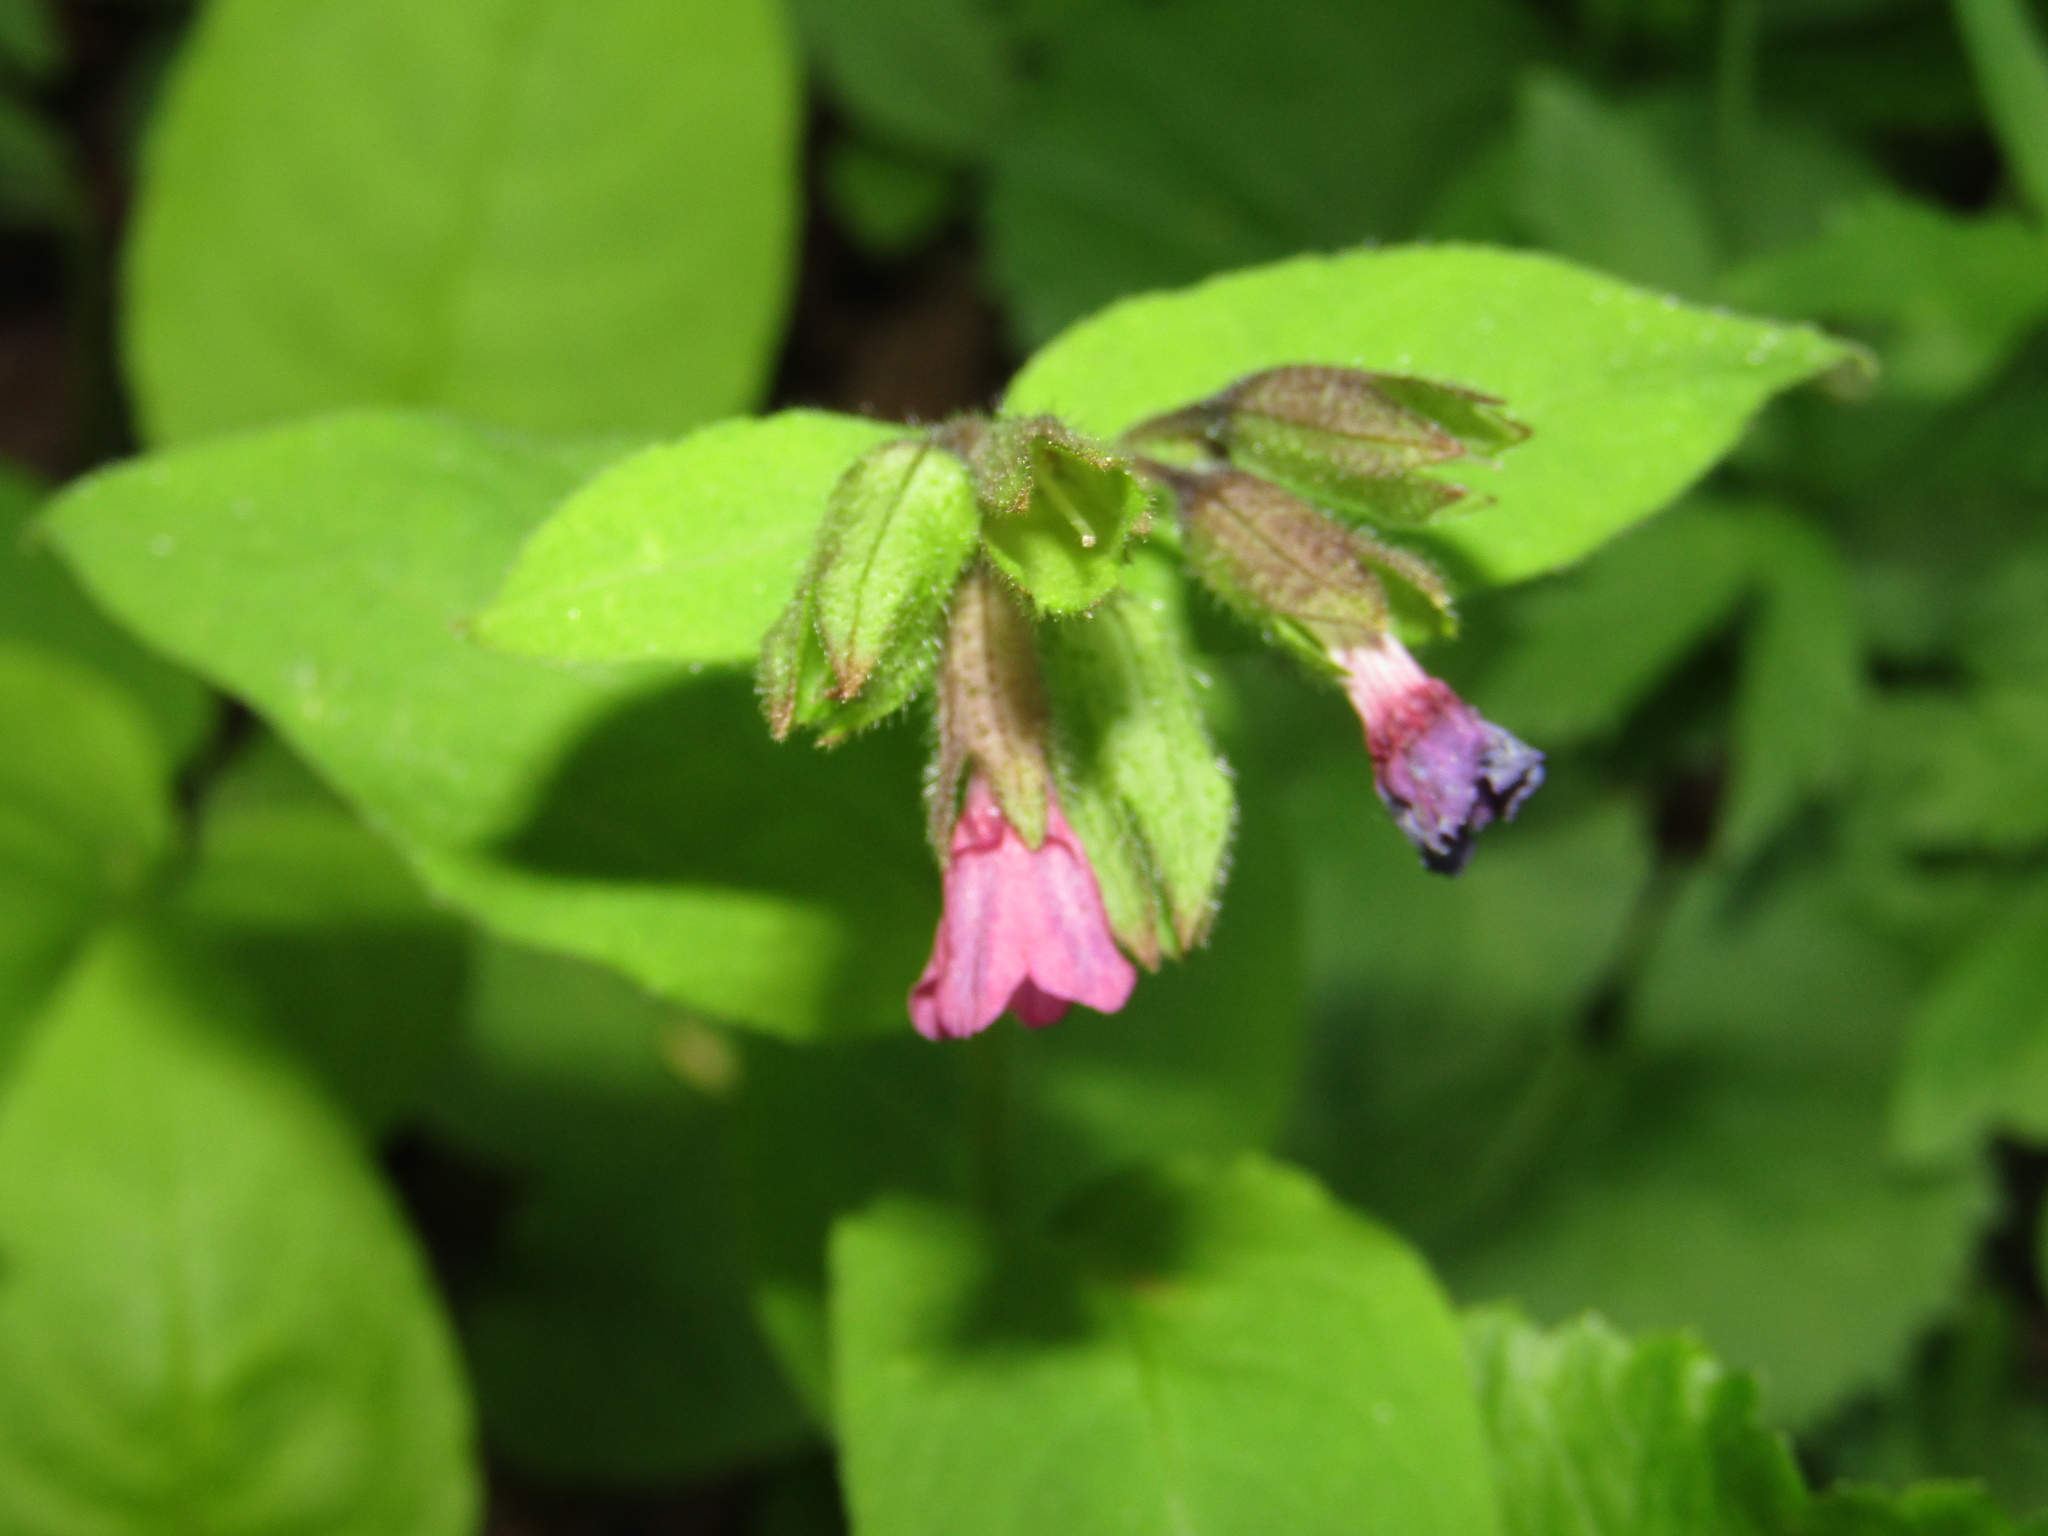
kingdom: Plantae
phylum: Tracheophyta
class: Magnoliopsida
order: Boraginales
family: Boraginaceae
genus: Pulmonaria
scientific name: Pulmonaria obscura
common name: Suffolk lungwort
